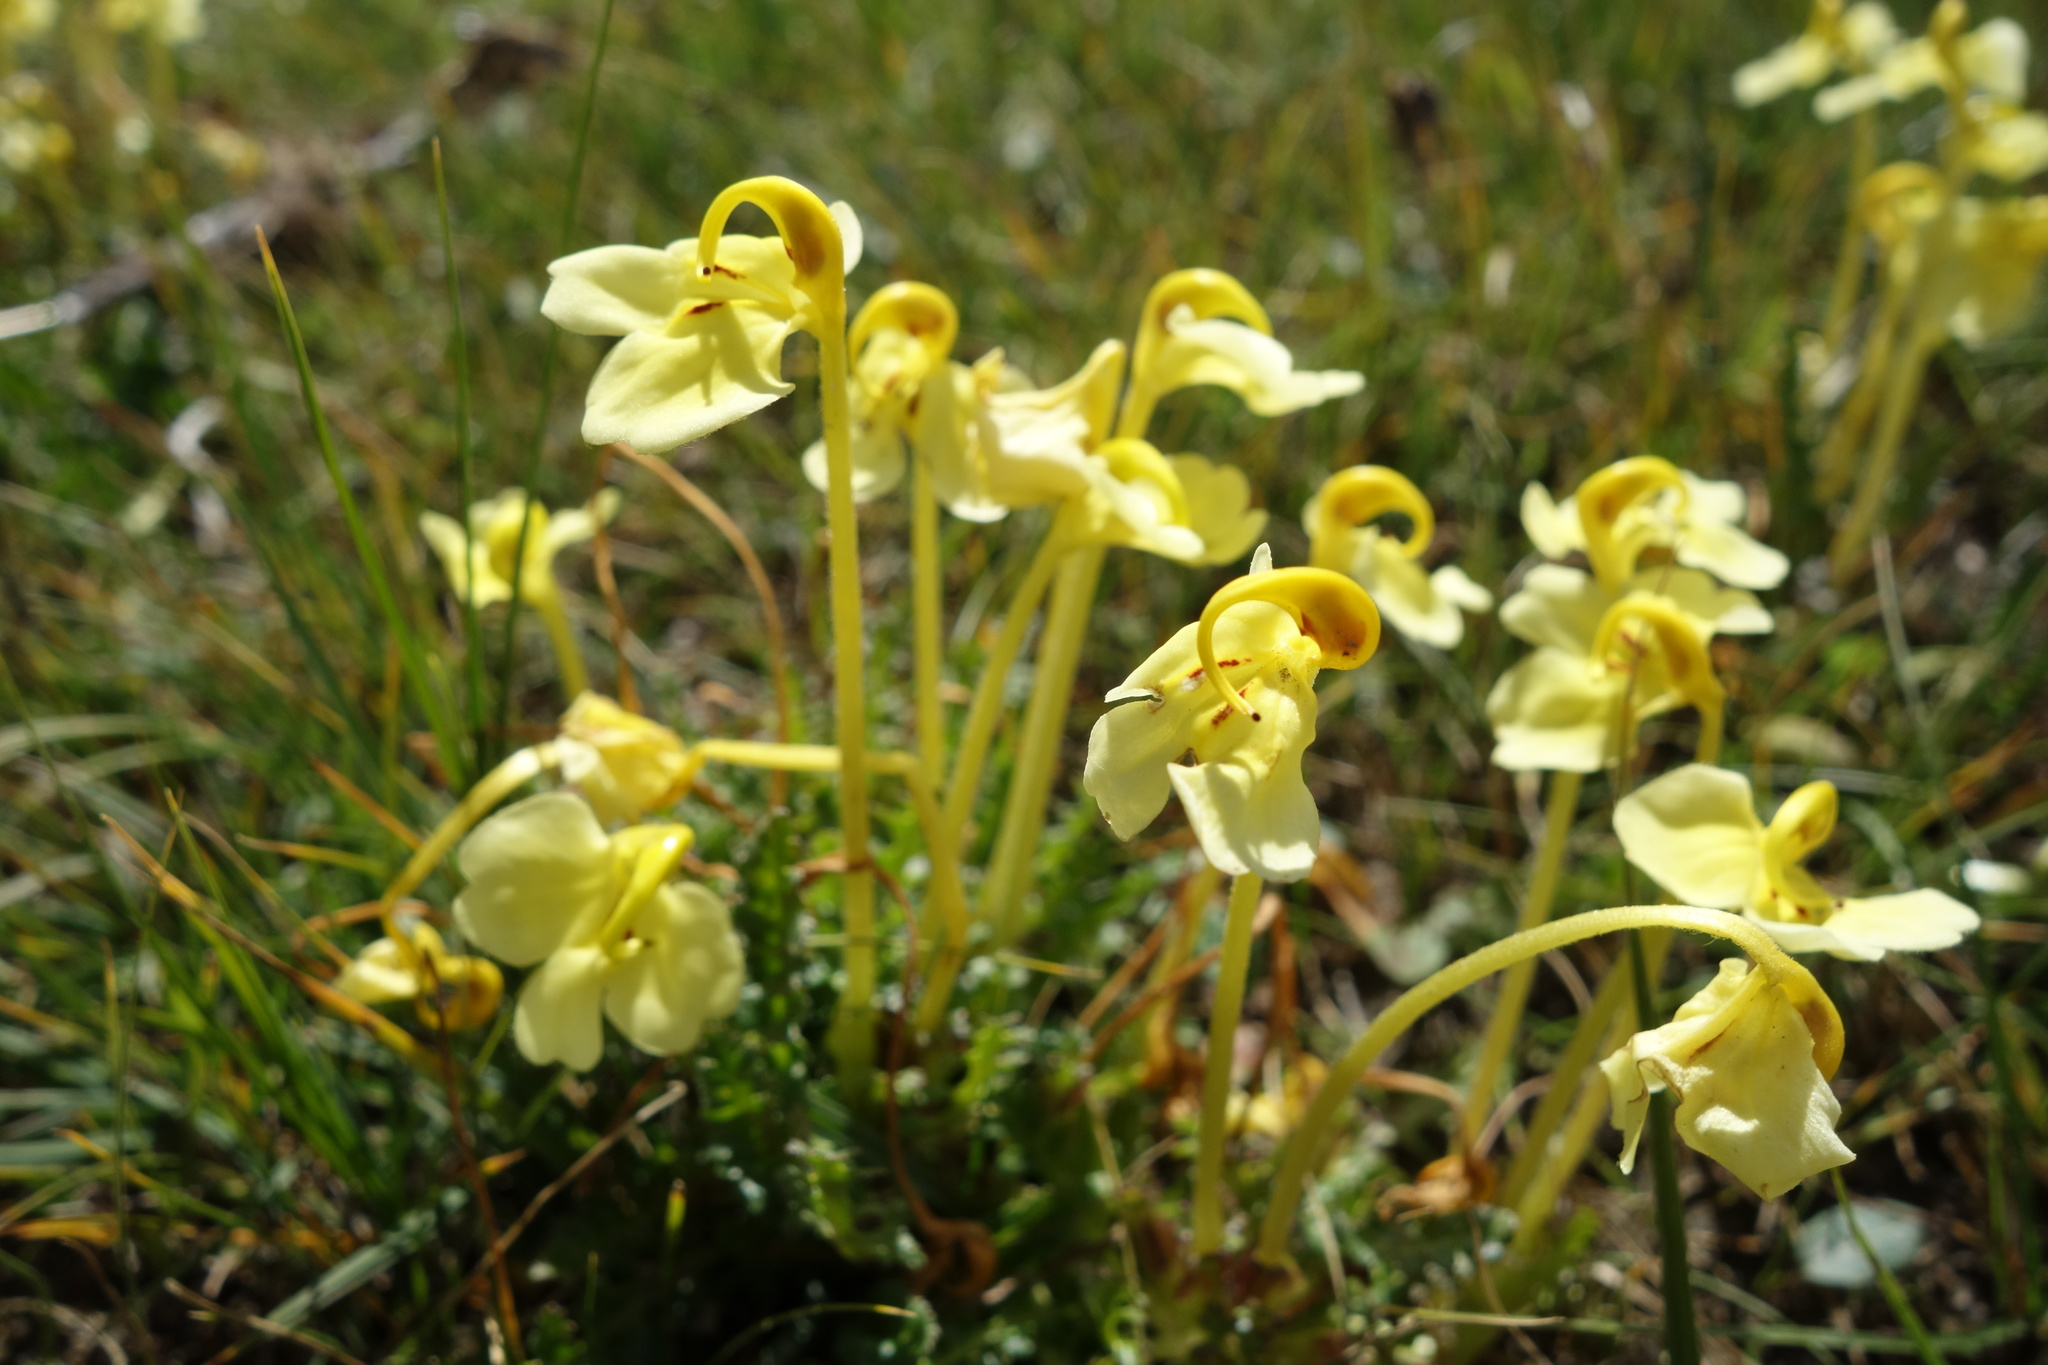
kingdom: Plantae
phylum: Tracheophyta
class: Magnoliopsida
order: Lamiales
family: Orobanchaceae
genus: Pedicularis
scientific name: Pedicularis longiflora
